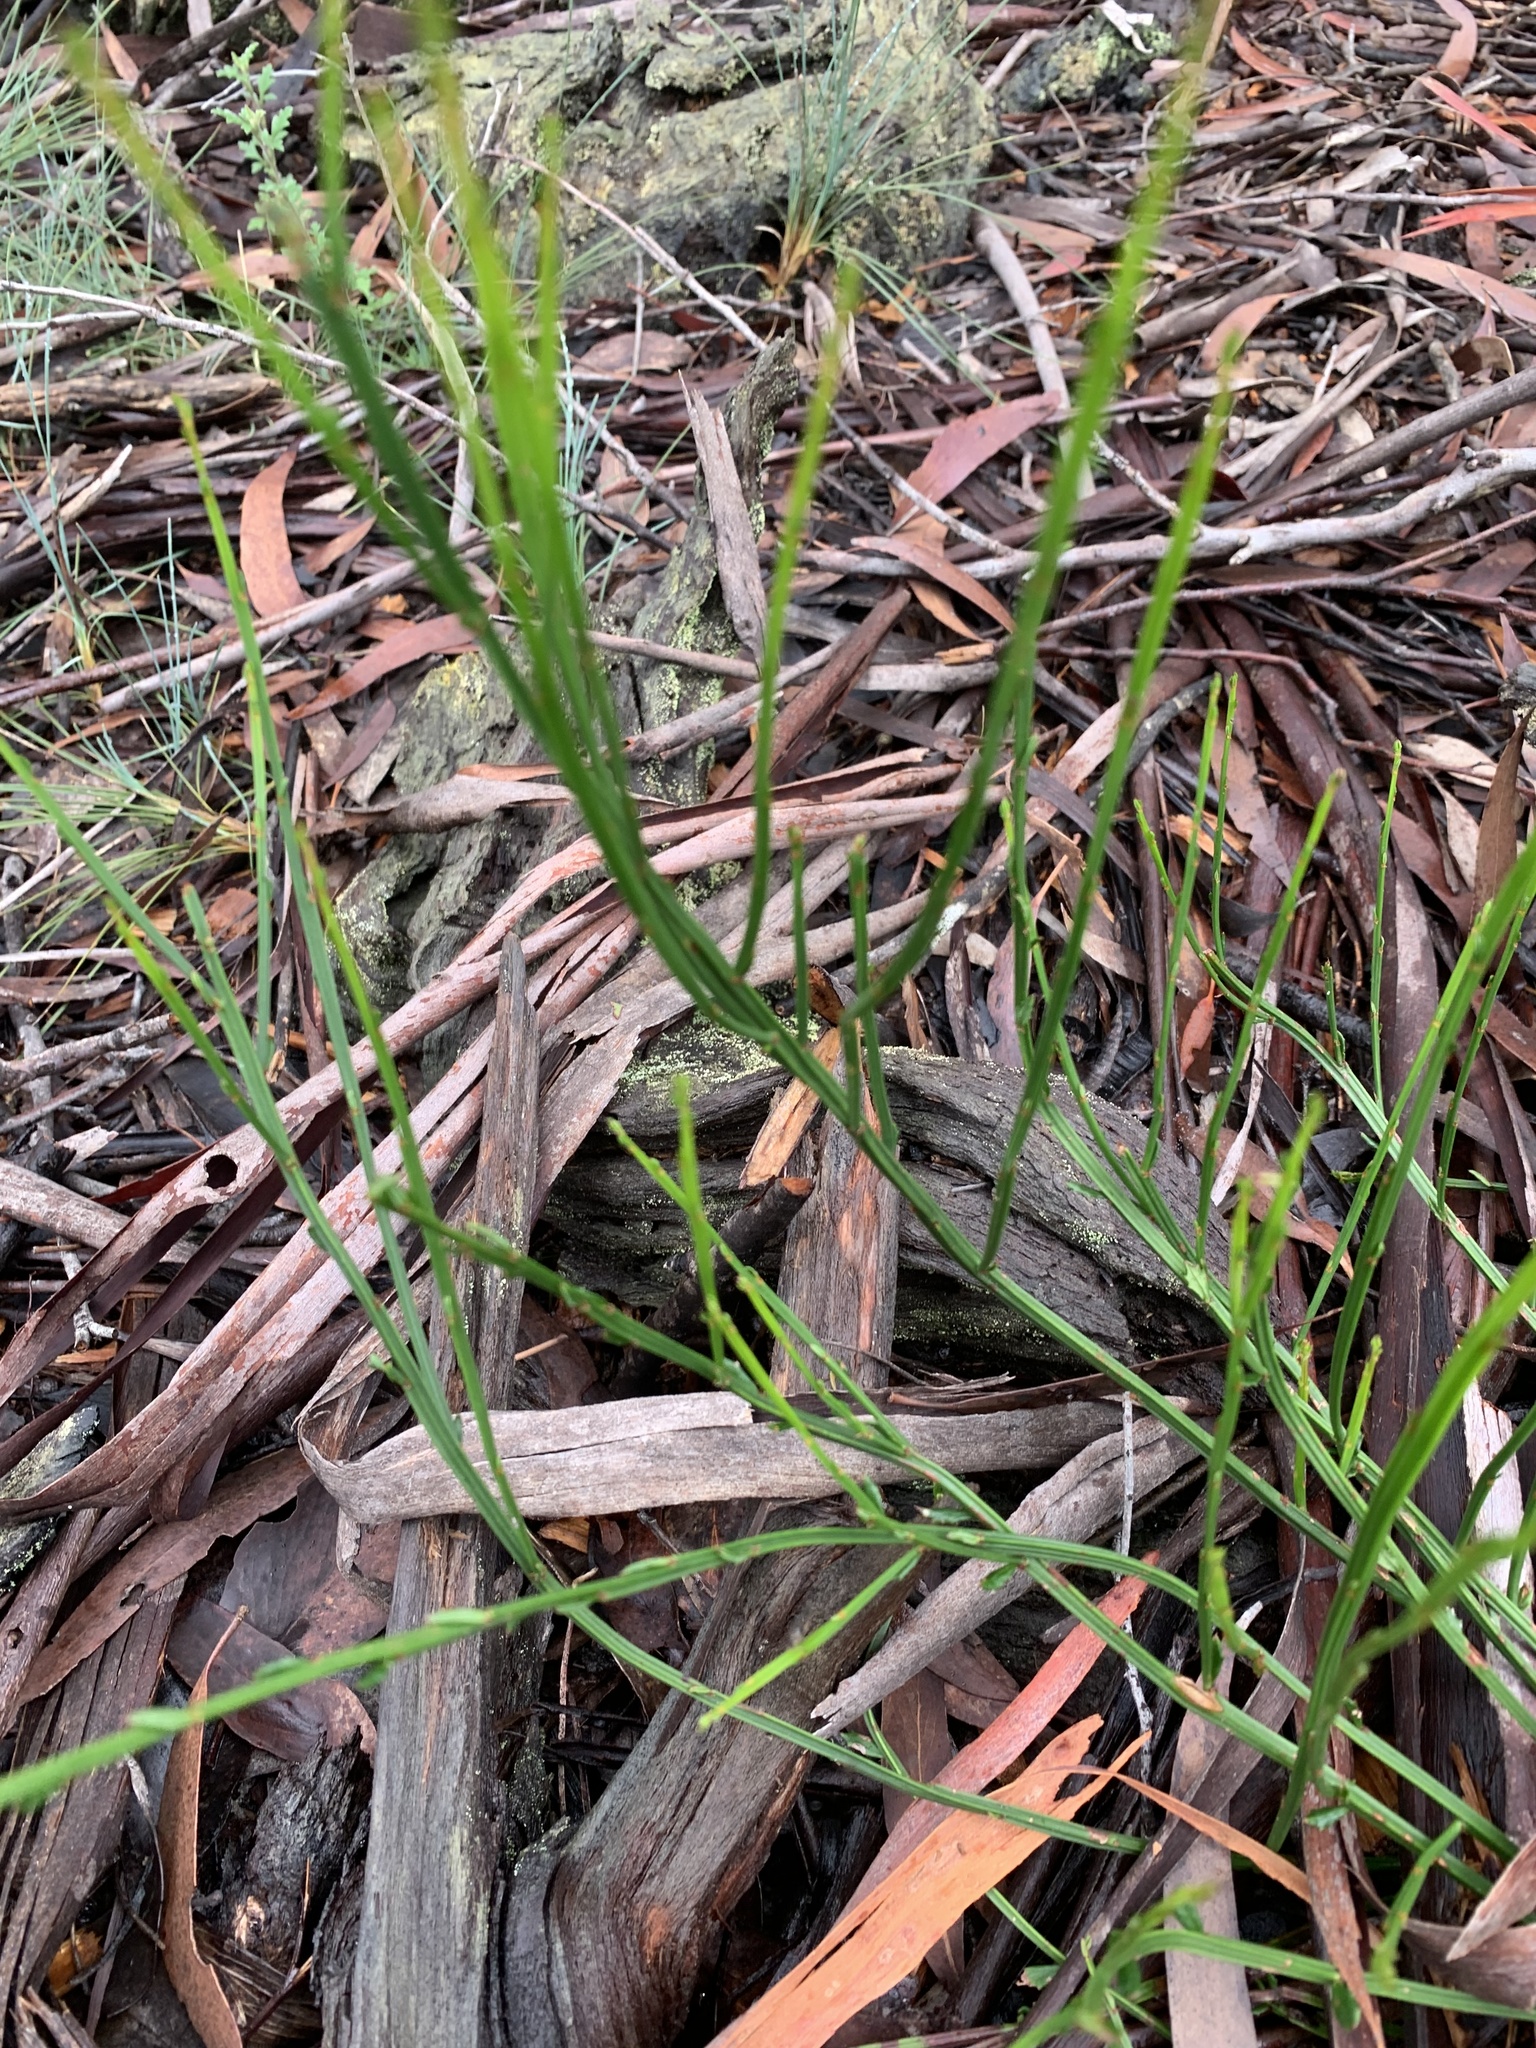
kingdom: Plantae
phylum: Tracheophyta
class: Magnoliopsida
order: Malpighiales
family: Euphorbiaceae
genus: Amperea
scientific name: Amperea xiphoclada
